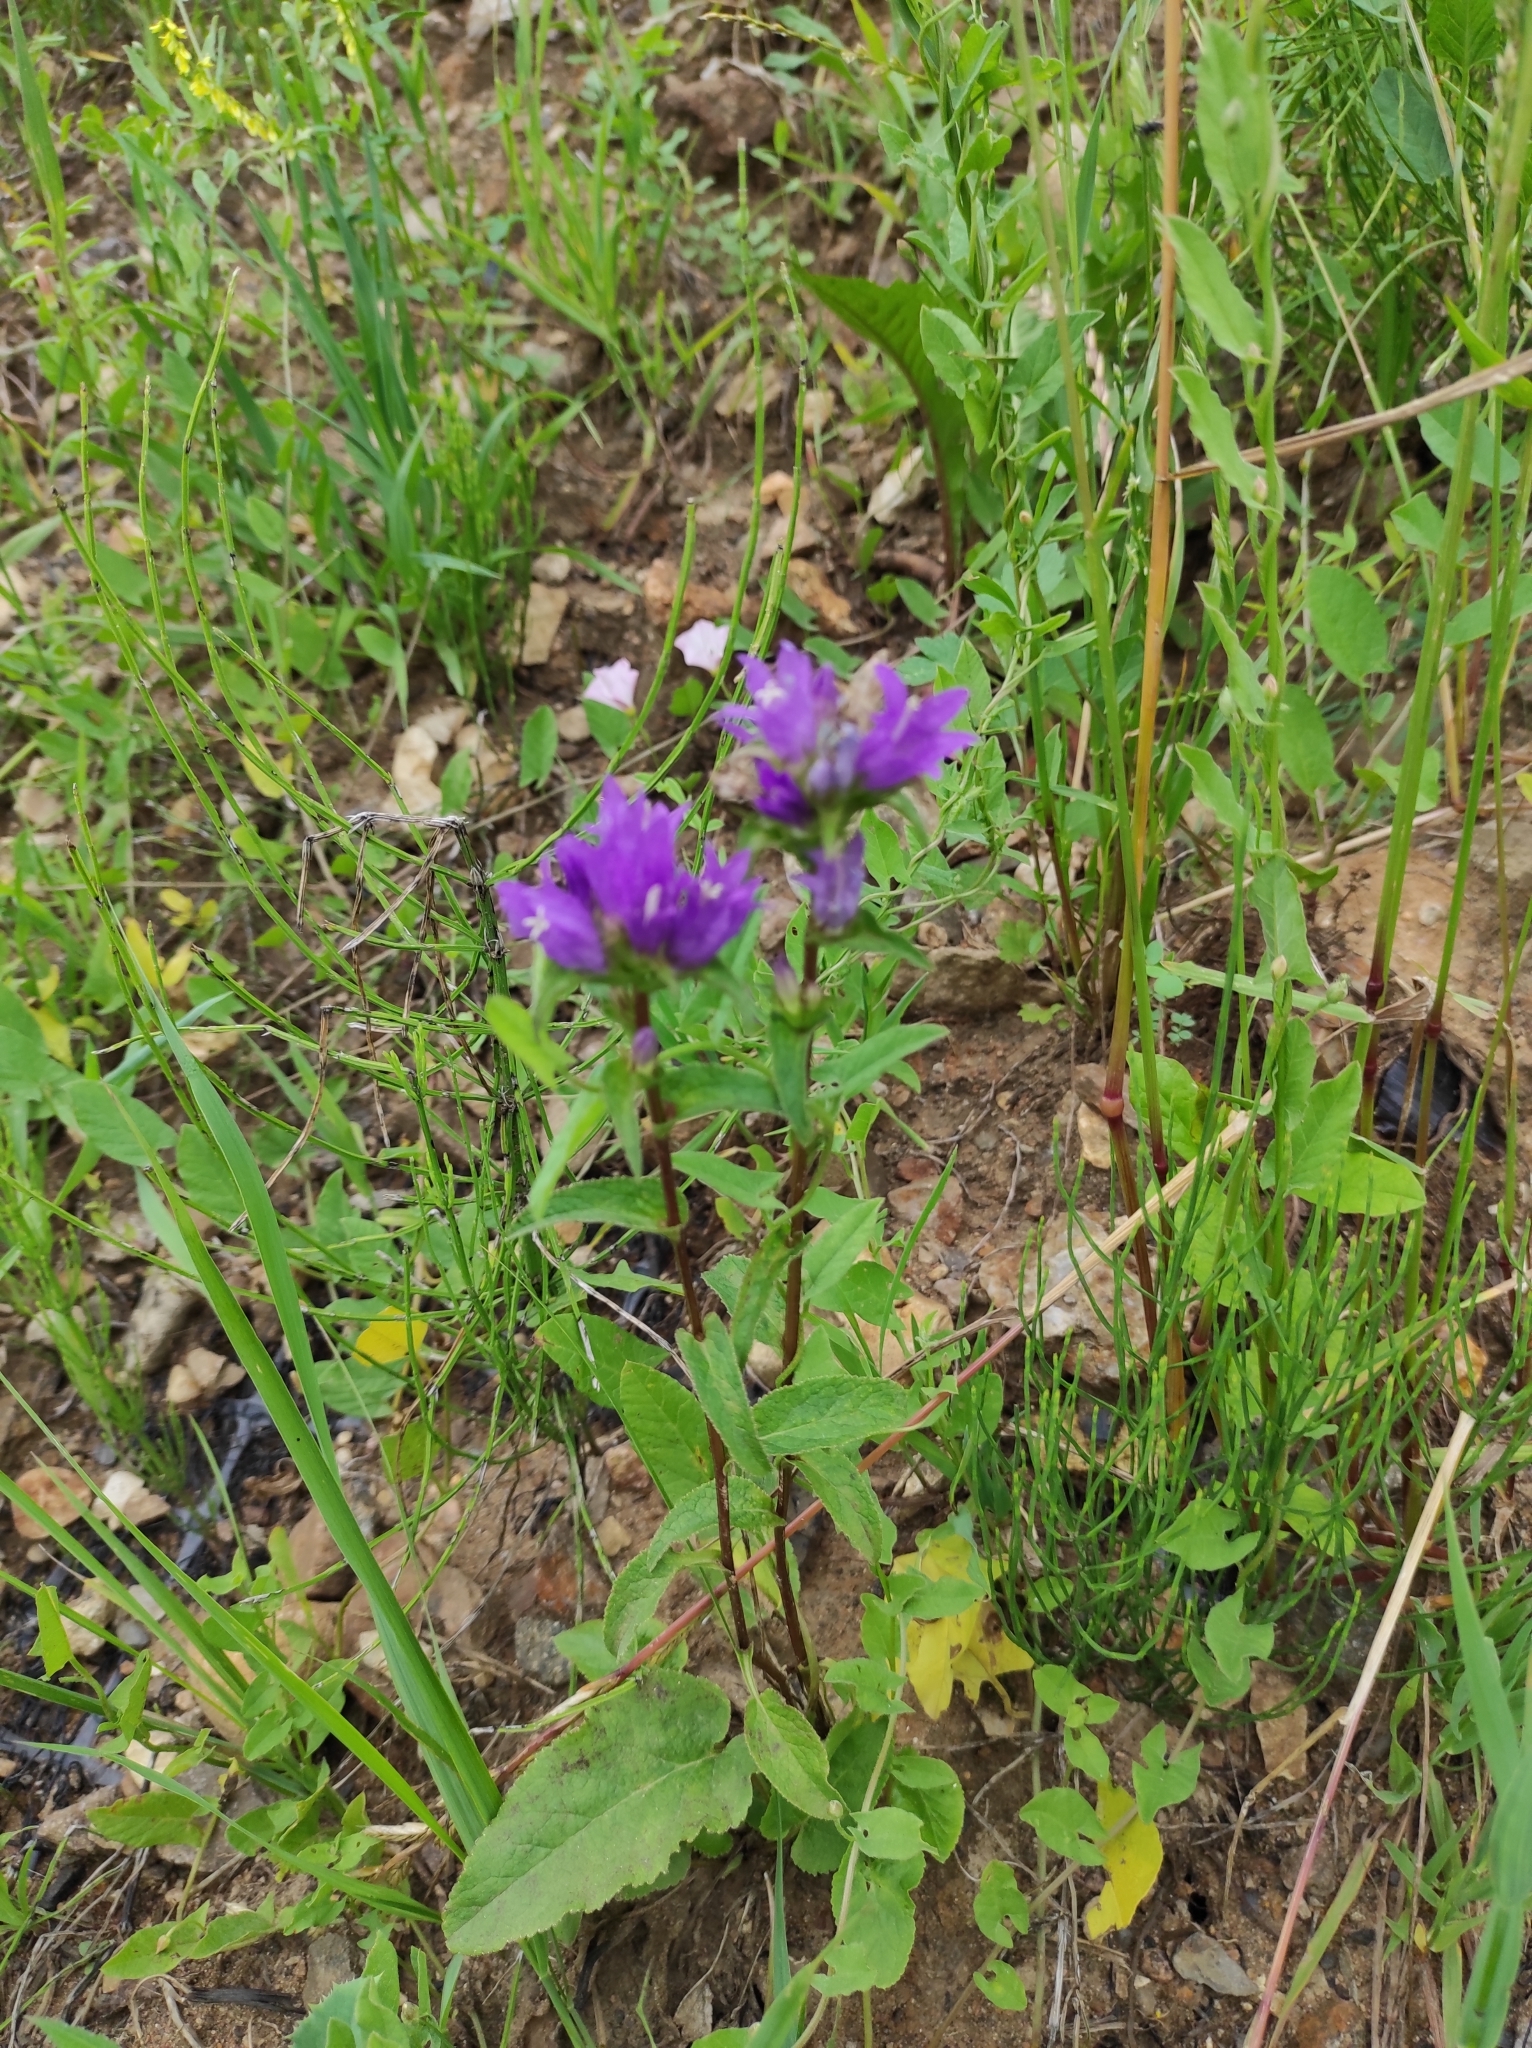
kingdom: Plantae
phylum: Tracheophyta
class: Magnoliopsida
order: Asterales
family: Campanulaceae
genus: Campanula
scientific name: Campanula glomerata
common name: Clustered bellflower
